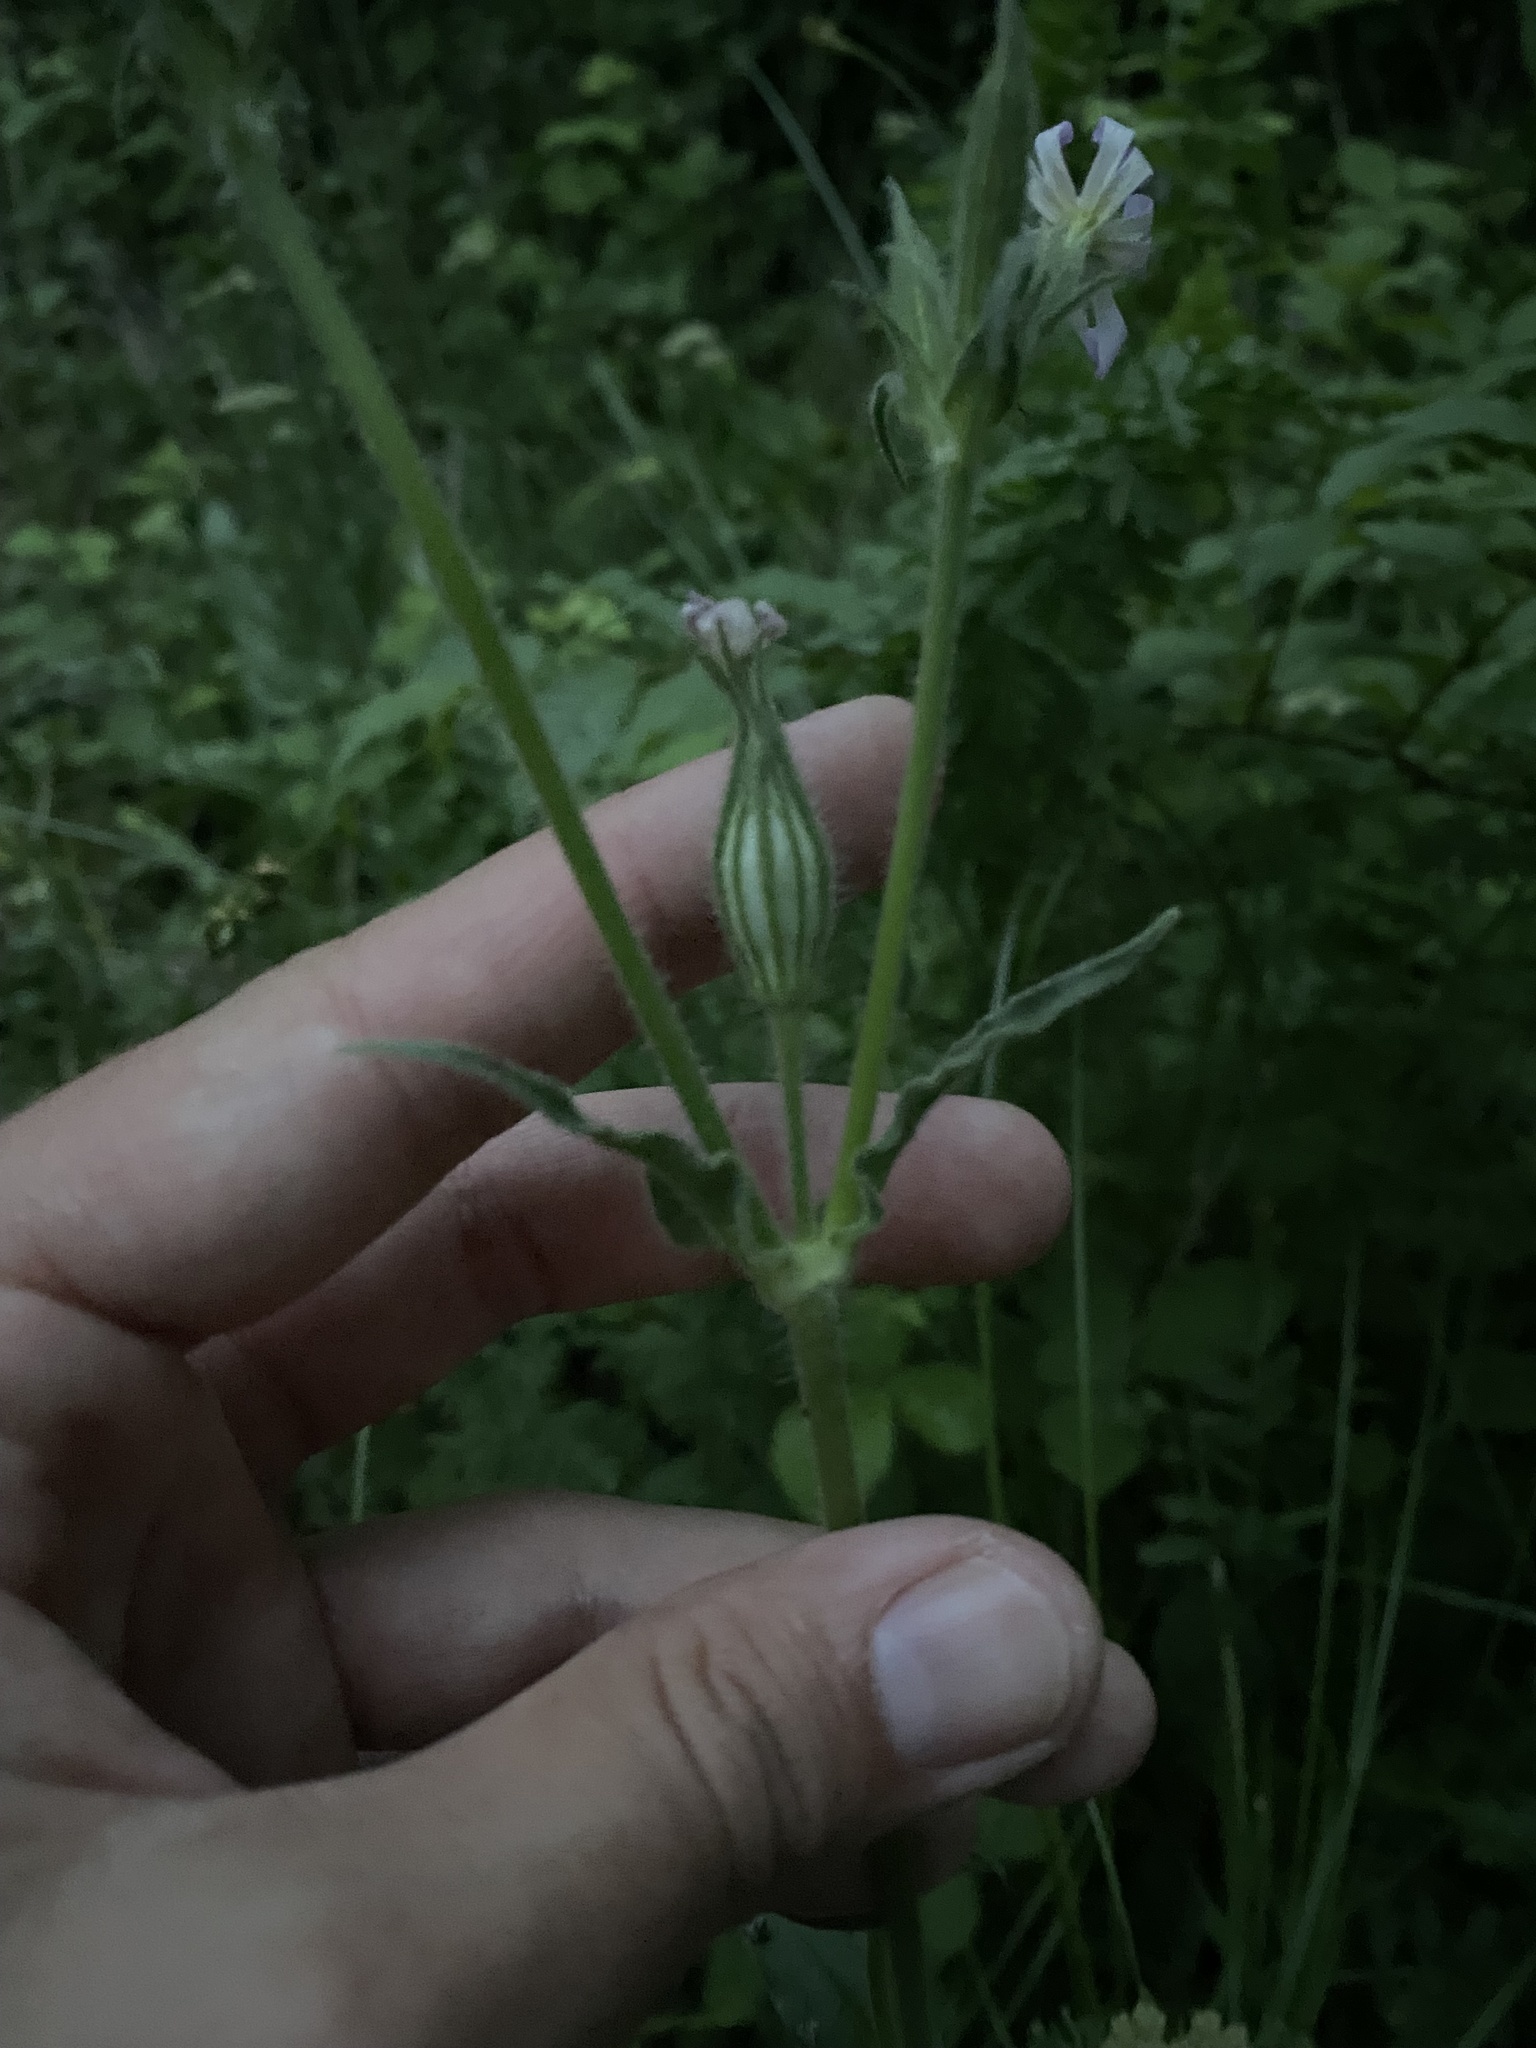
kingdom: Plantae
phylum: Tracheophyta
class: Magnoliopsida
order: Caryophyllales
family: Caryophyllaceae
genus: Silene
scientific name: Silene noctiflora
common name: Night-flowering catchfly
